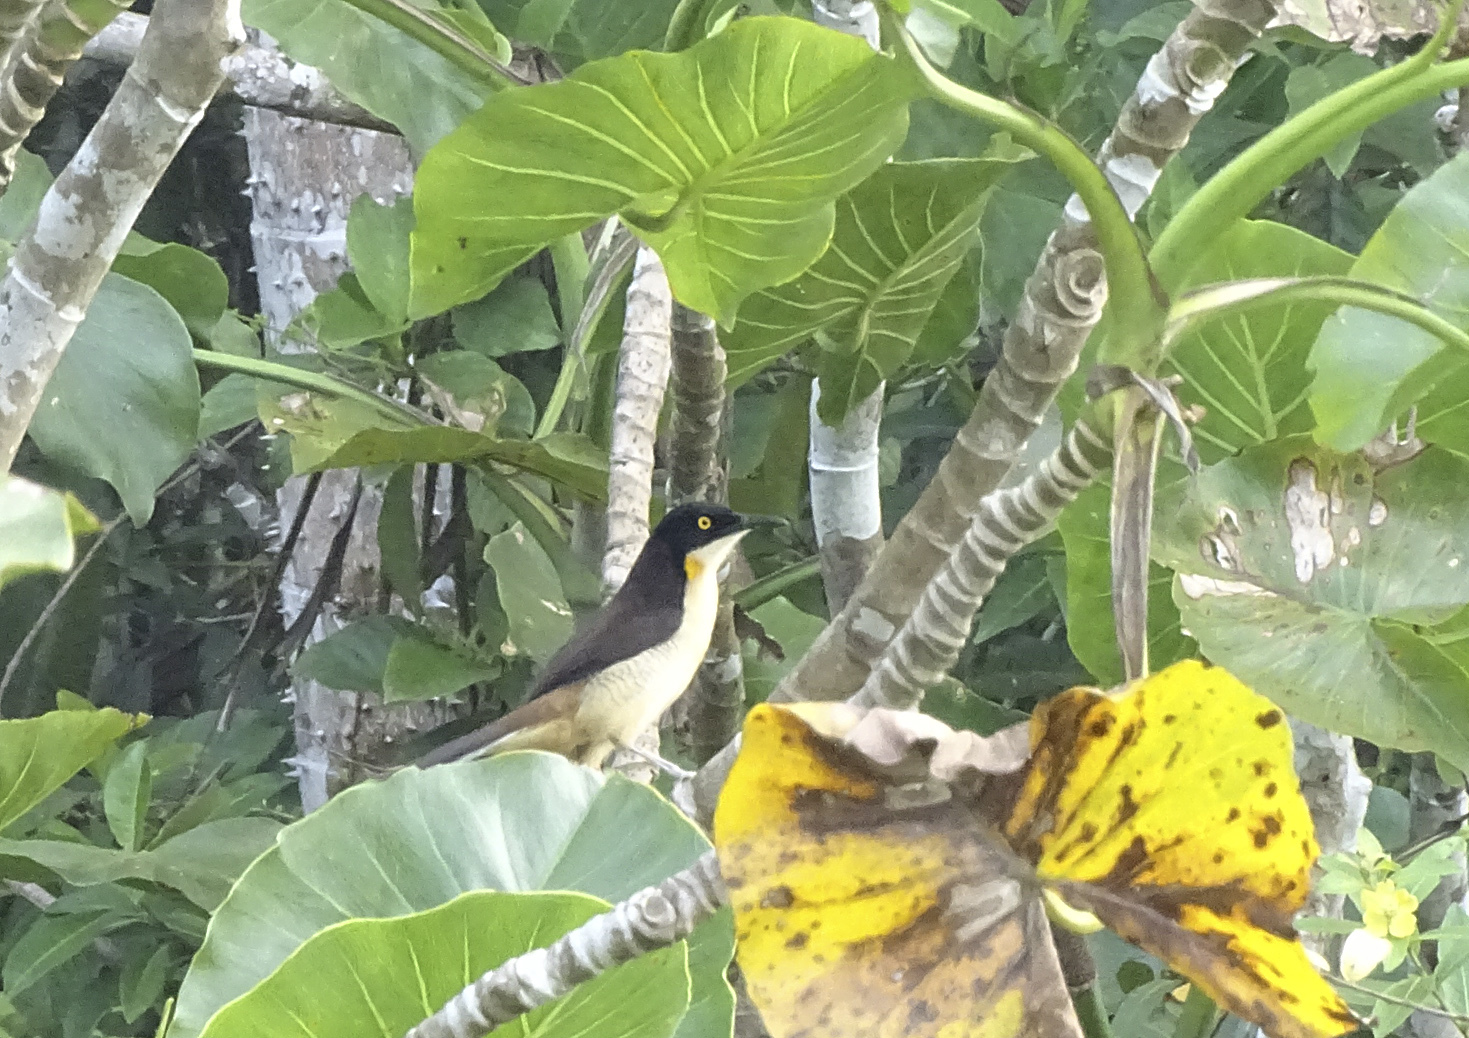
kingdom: Animalia
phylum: Chordata
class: Aves
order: Passeriformes
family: Donacobiidae
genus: Donacobius
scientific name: Donacobius atricapilla
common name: Black-capped donacobius
